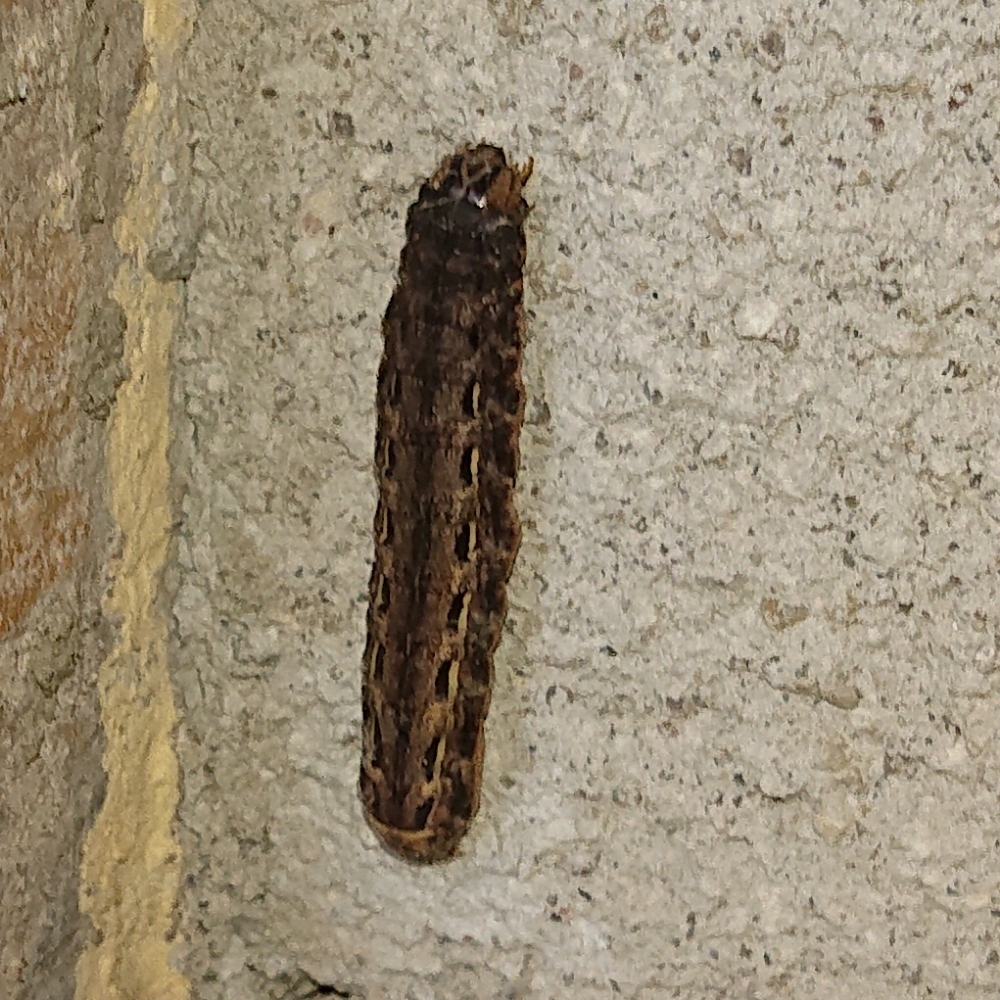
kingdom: Animalia
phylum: Arthropoda
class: Insecta
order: Lepidoptera
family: Noctuidae
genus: Noctua
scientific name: Noctua pronuba
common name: Large yellow underwing
